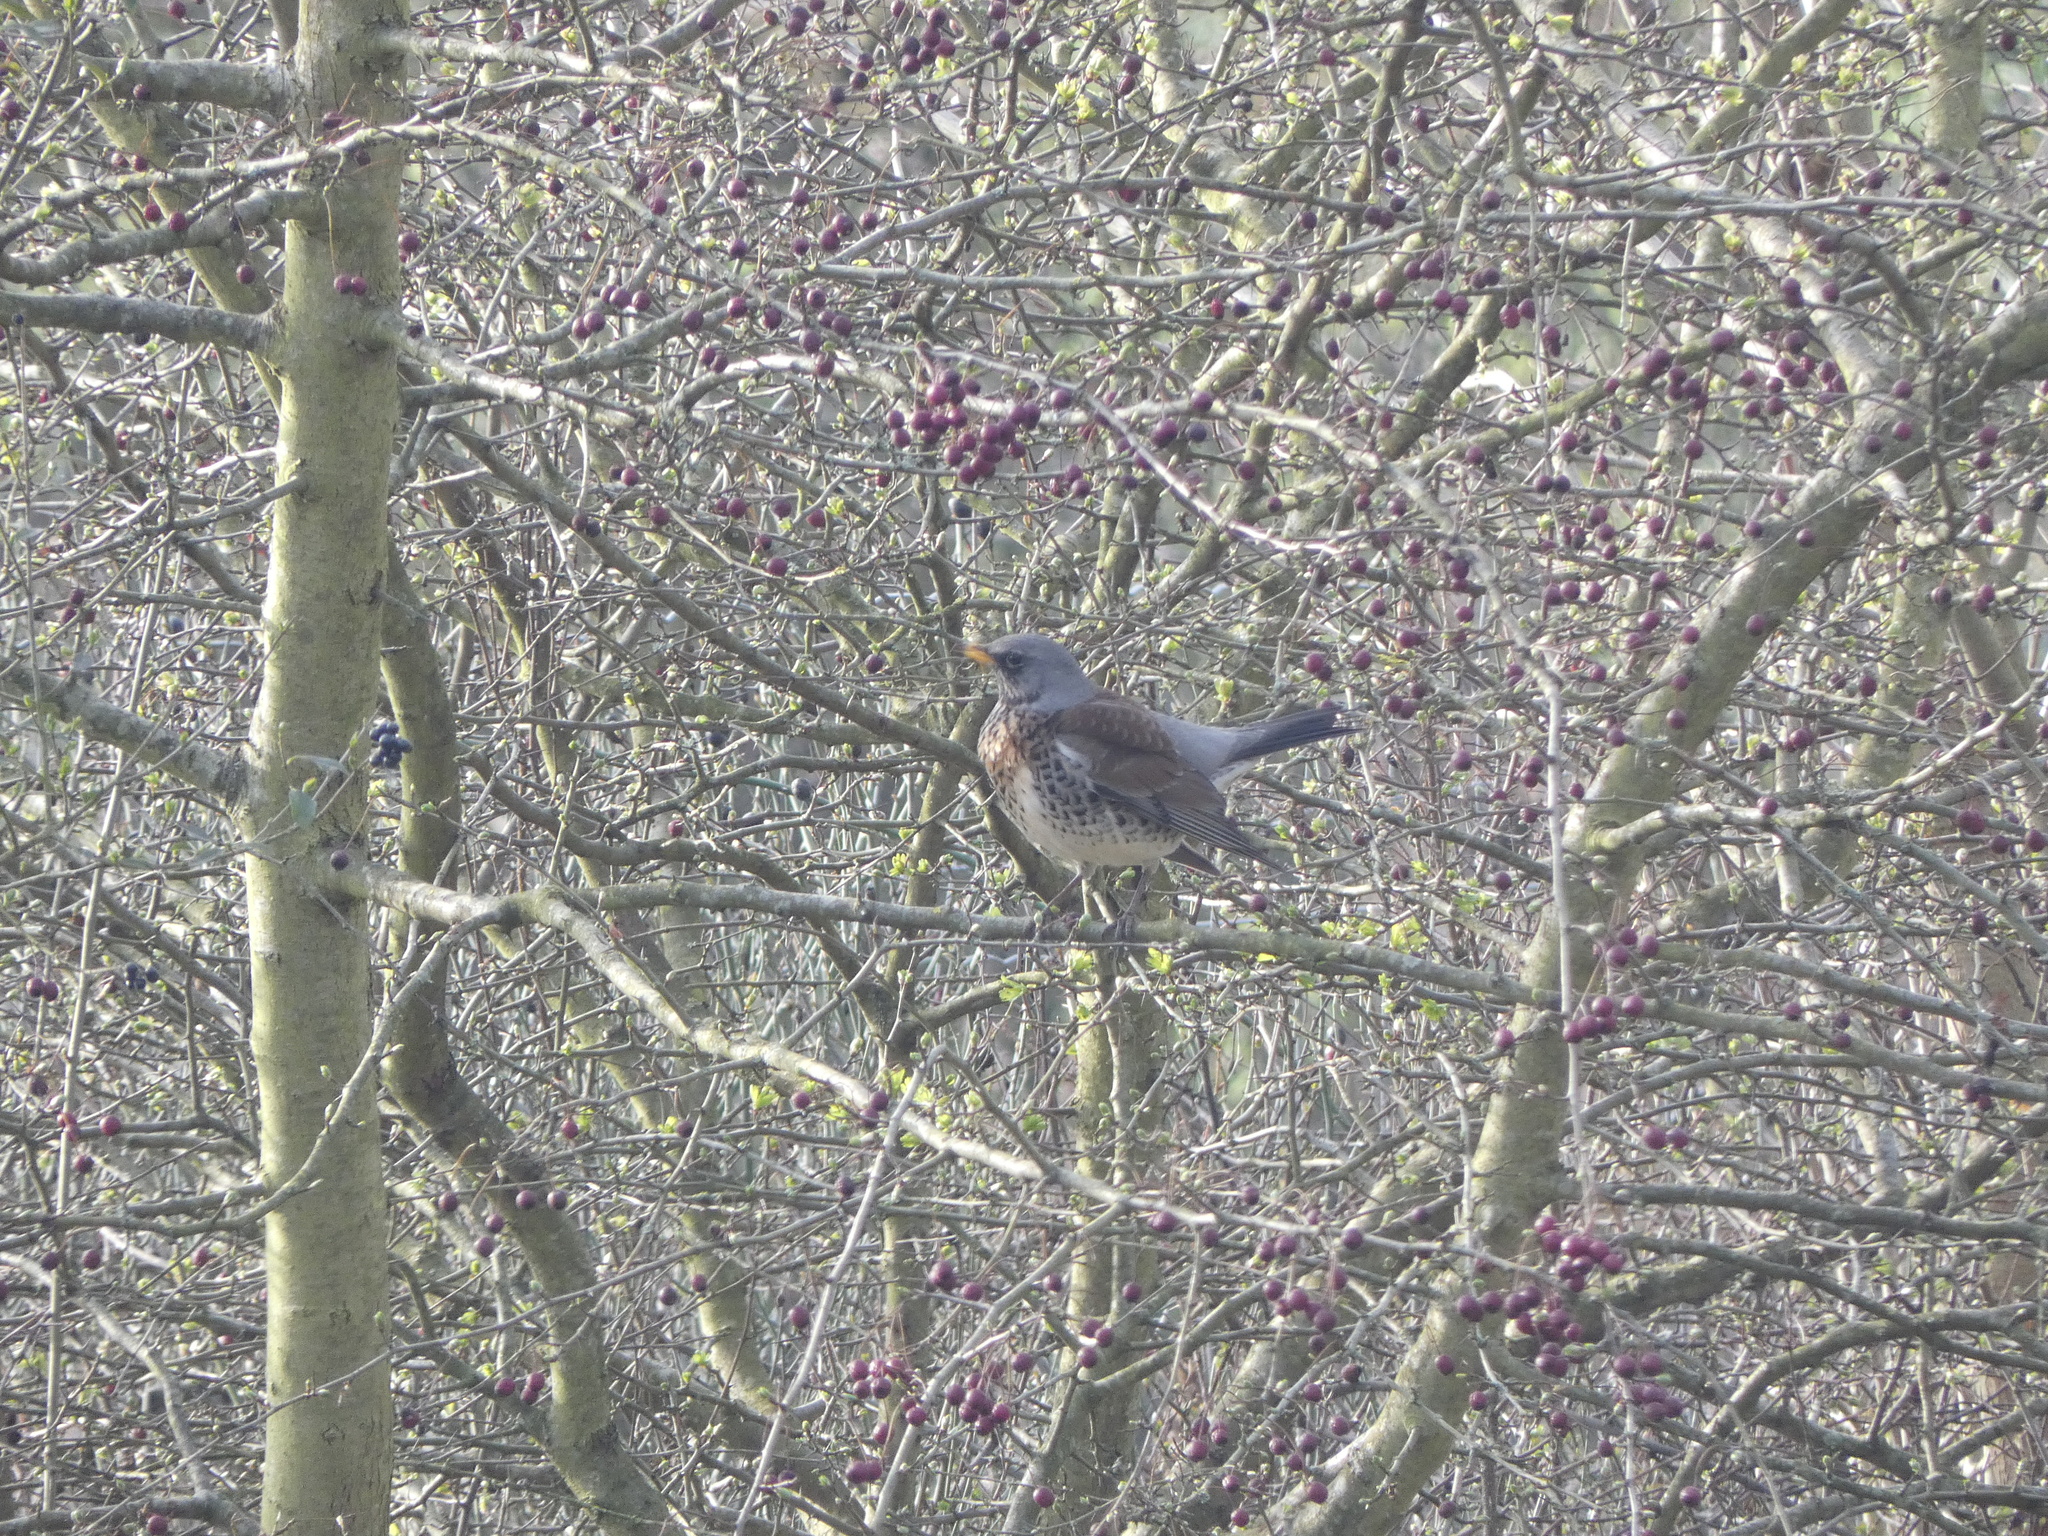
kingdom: Animalia
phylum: Chordata
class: Aves
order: Passeriformes
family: Turdidae
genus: Turdus
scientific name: Turdus pilaris
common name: Fieldfare
